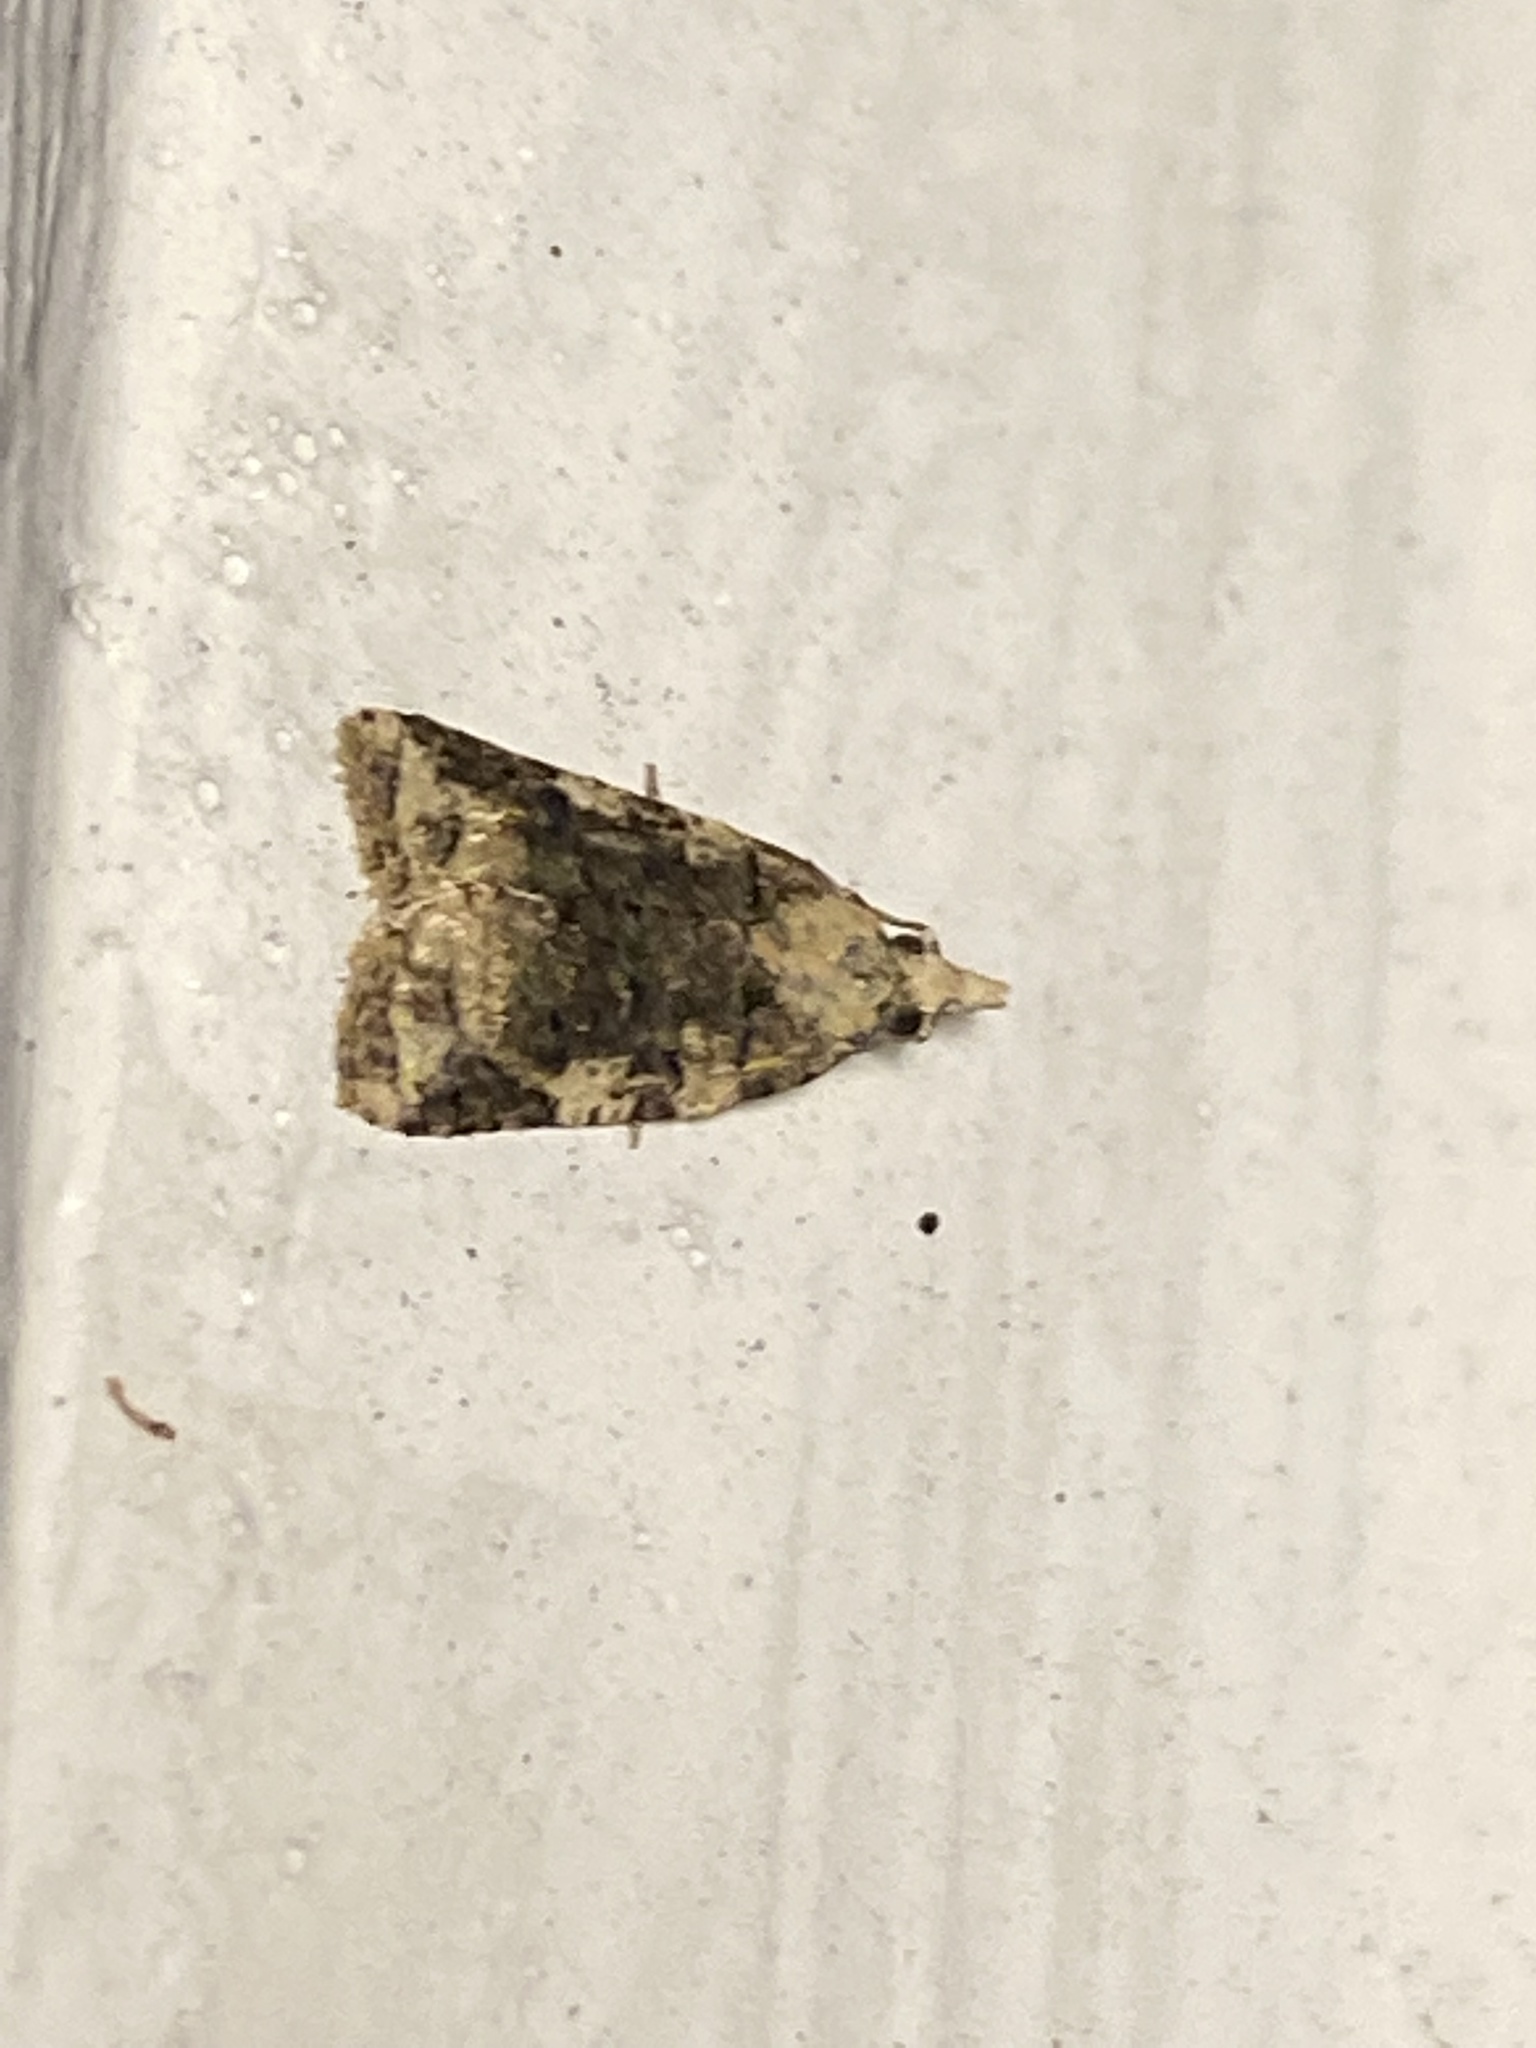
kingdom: Animalia
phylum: Arthropoda
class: Insecta
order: Lepidoptera
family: Tortricidae
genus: Platynota
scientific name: Platynota exasperatana
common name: Exasperating platynota moth
